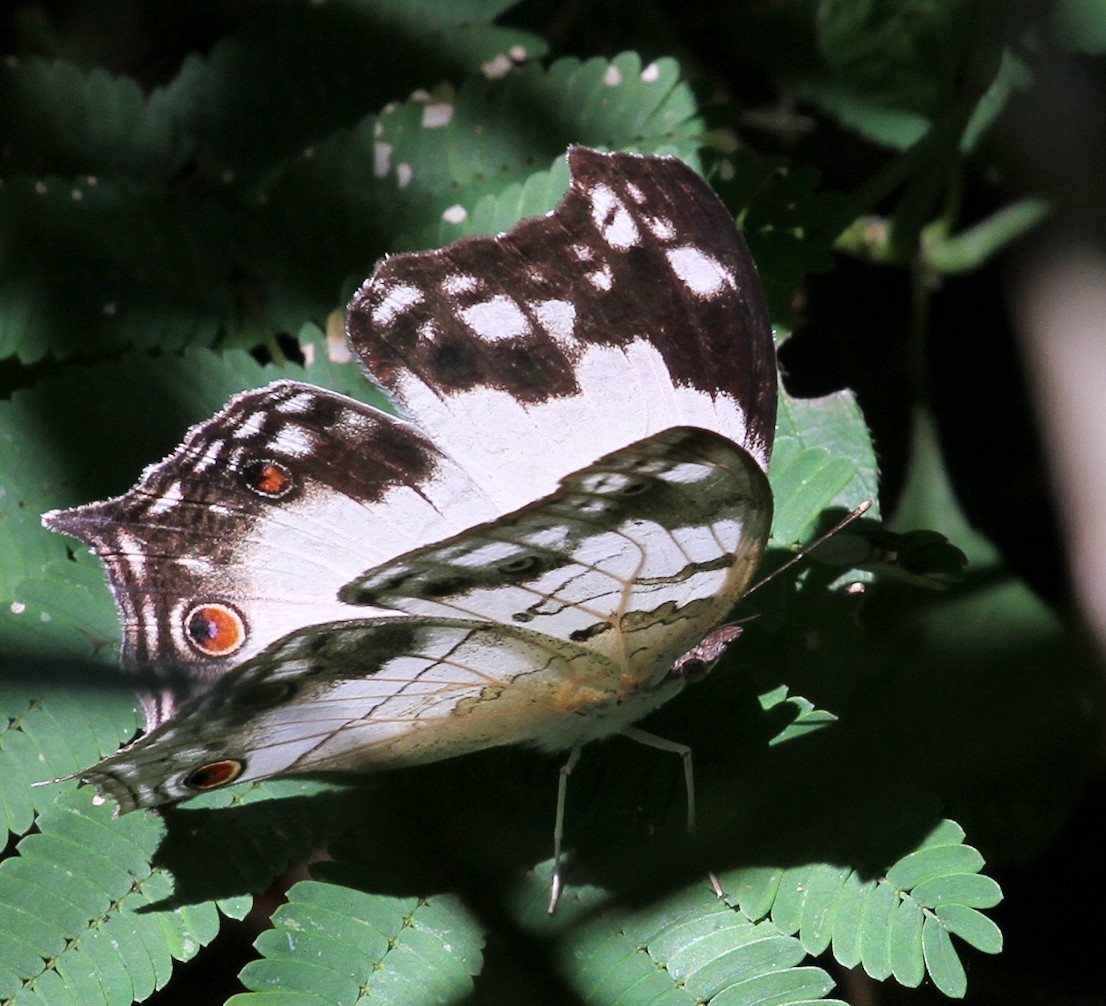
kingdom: Animalia
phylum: Arthropoda
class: Insecta
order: Lepidoptera
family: Nymphalidae
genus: Salamis
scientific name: Salamis
